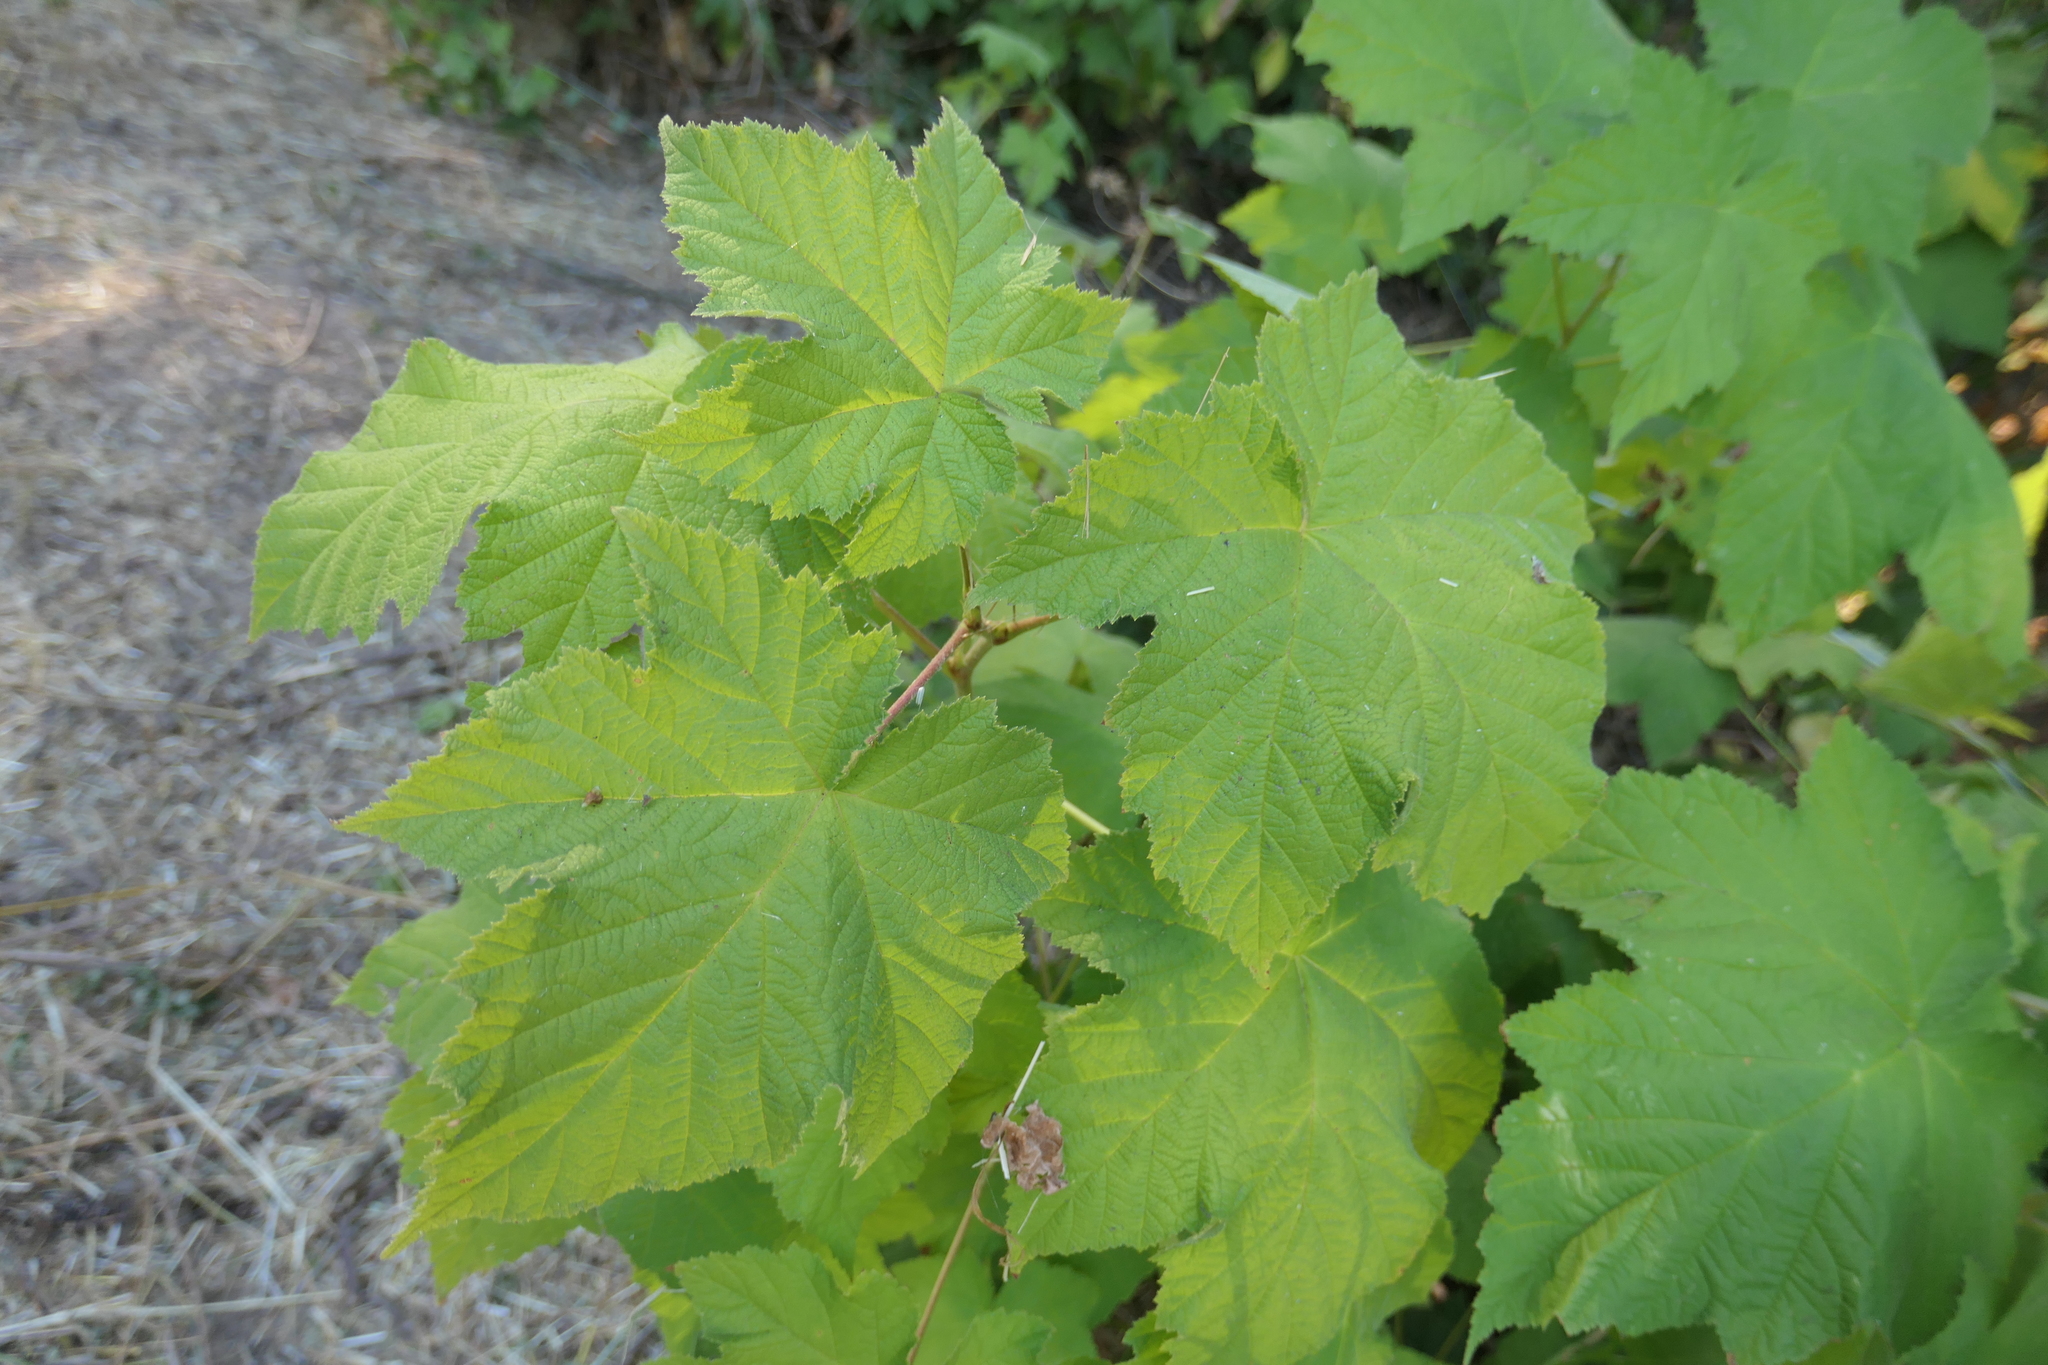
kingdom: Plantae
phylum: Tracheophyta
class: Magnoliopsida
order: Rosales
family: Rosaceae
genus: Rubus
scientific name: Rubus parviflorus
